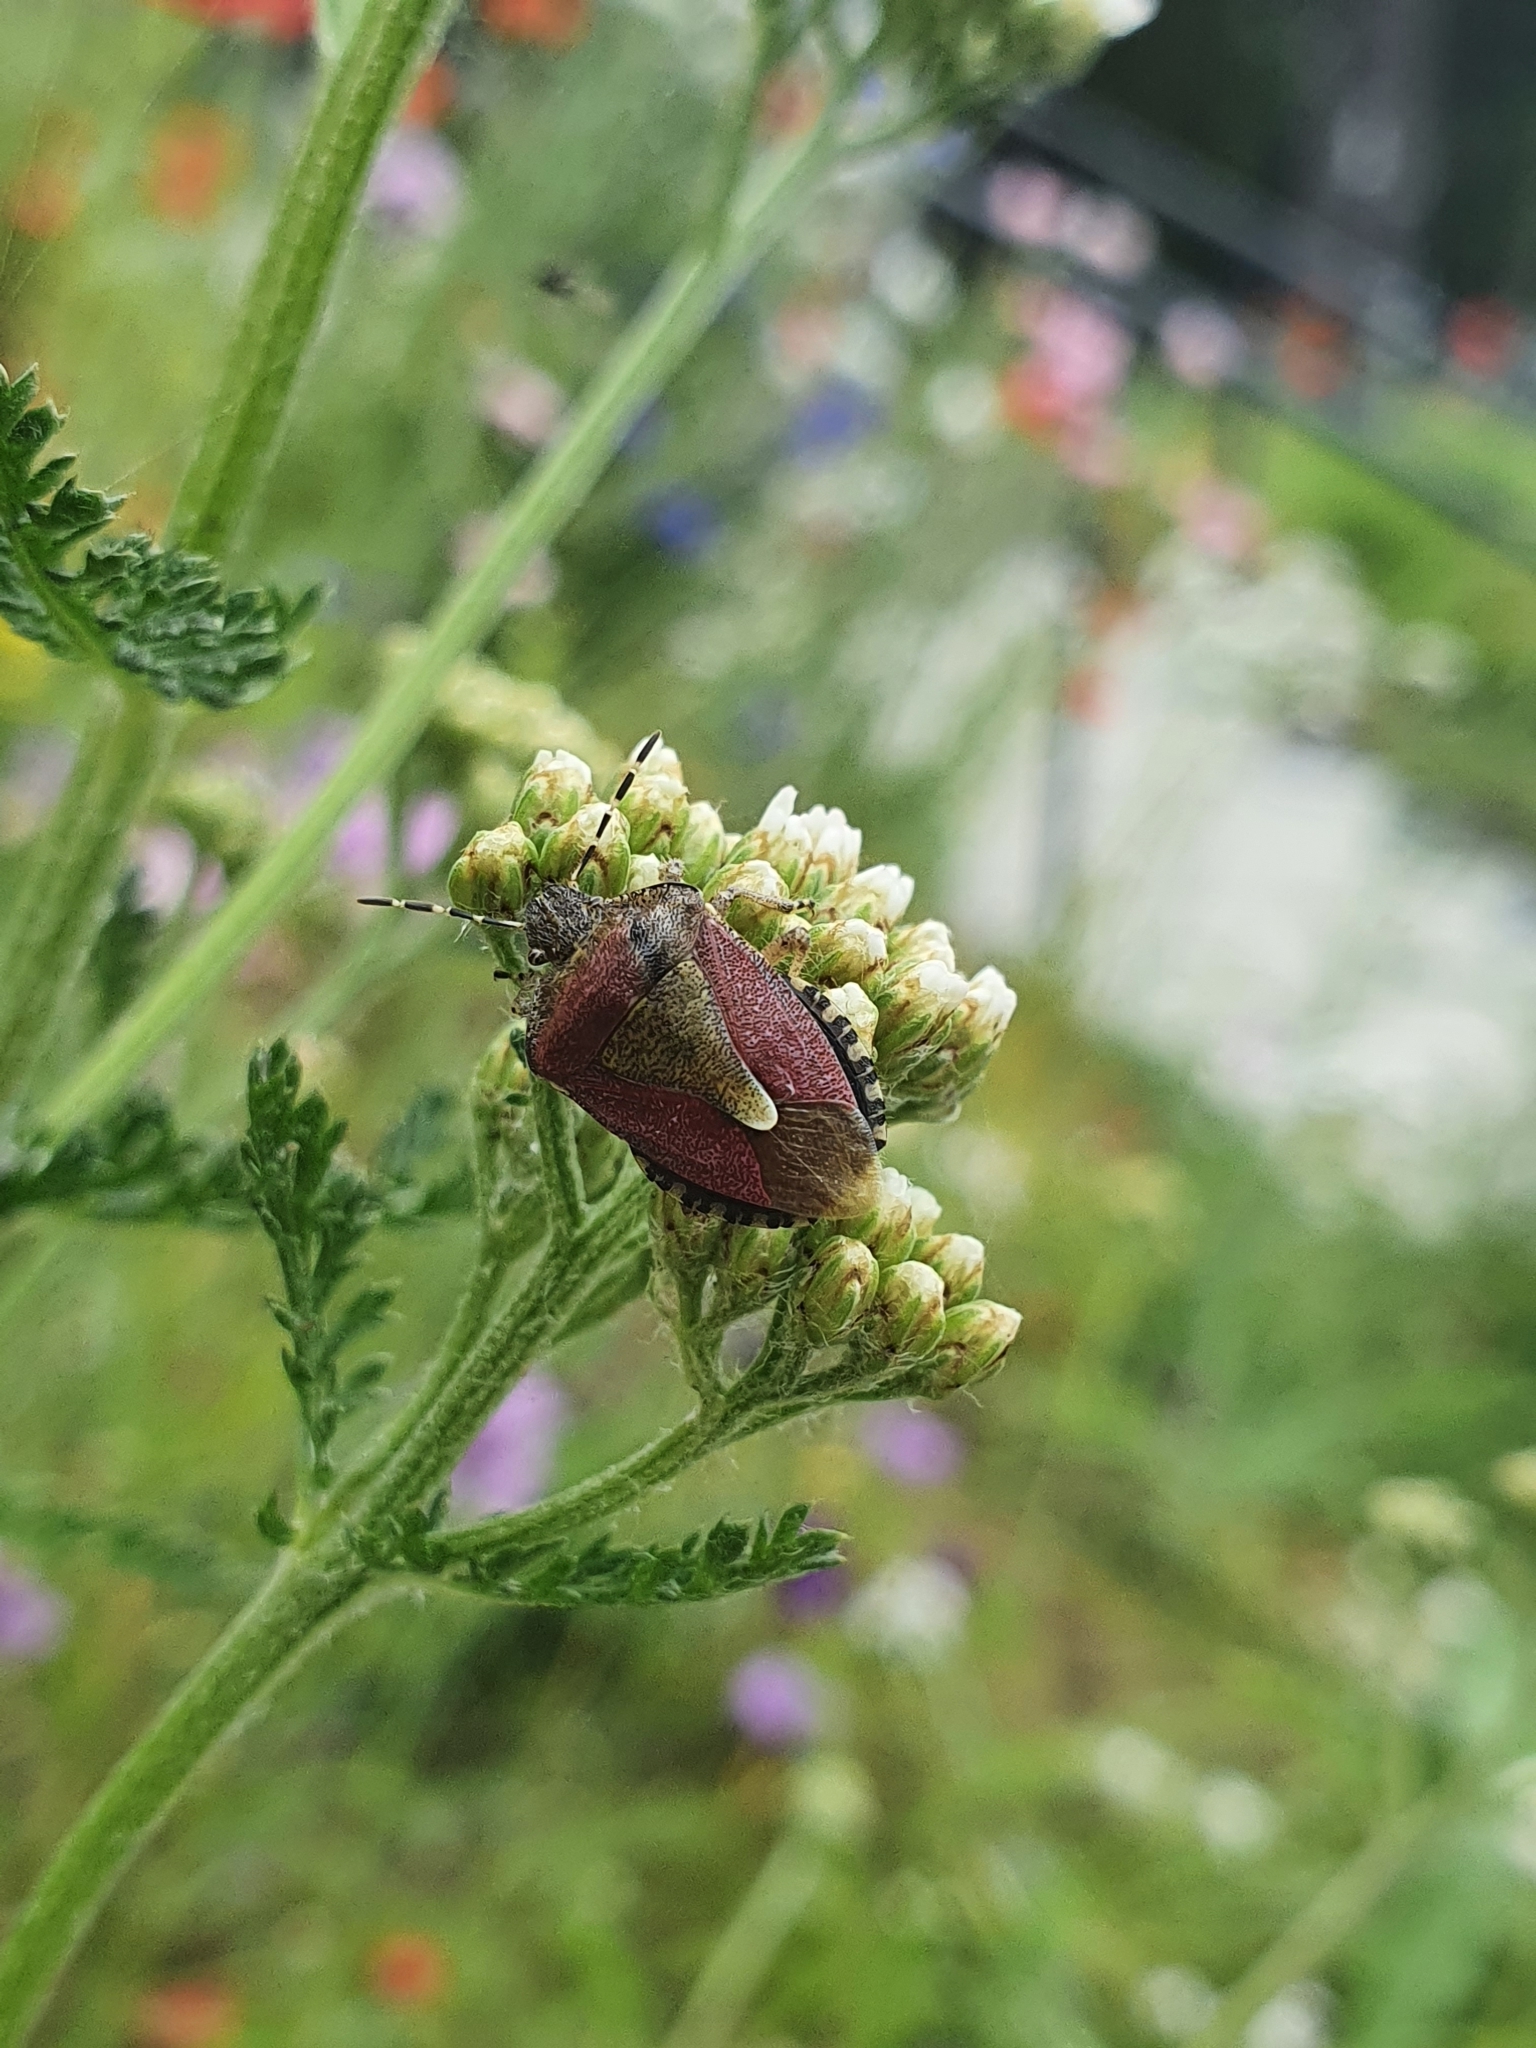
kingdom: Animalia
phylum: Arthropoda
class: Insecta
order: Hemiptera
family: Pentatomidae
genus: Dolycoris
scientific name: Dolycoris baccarum
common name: Sloe bug
